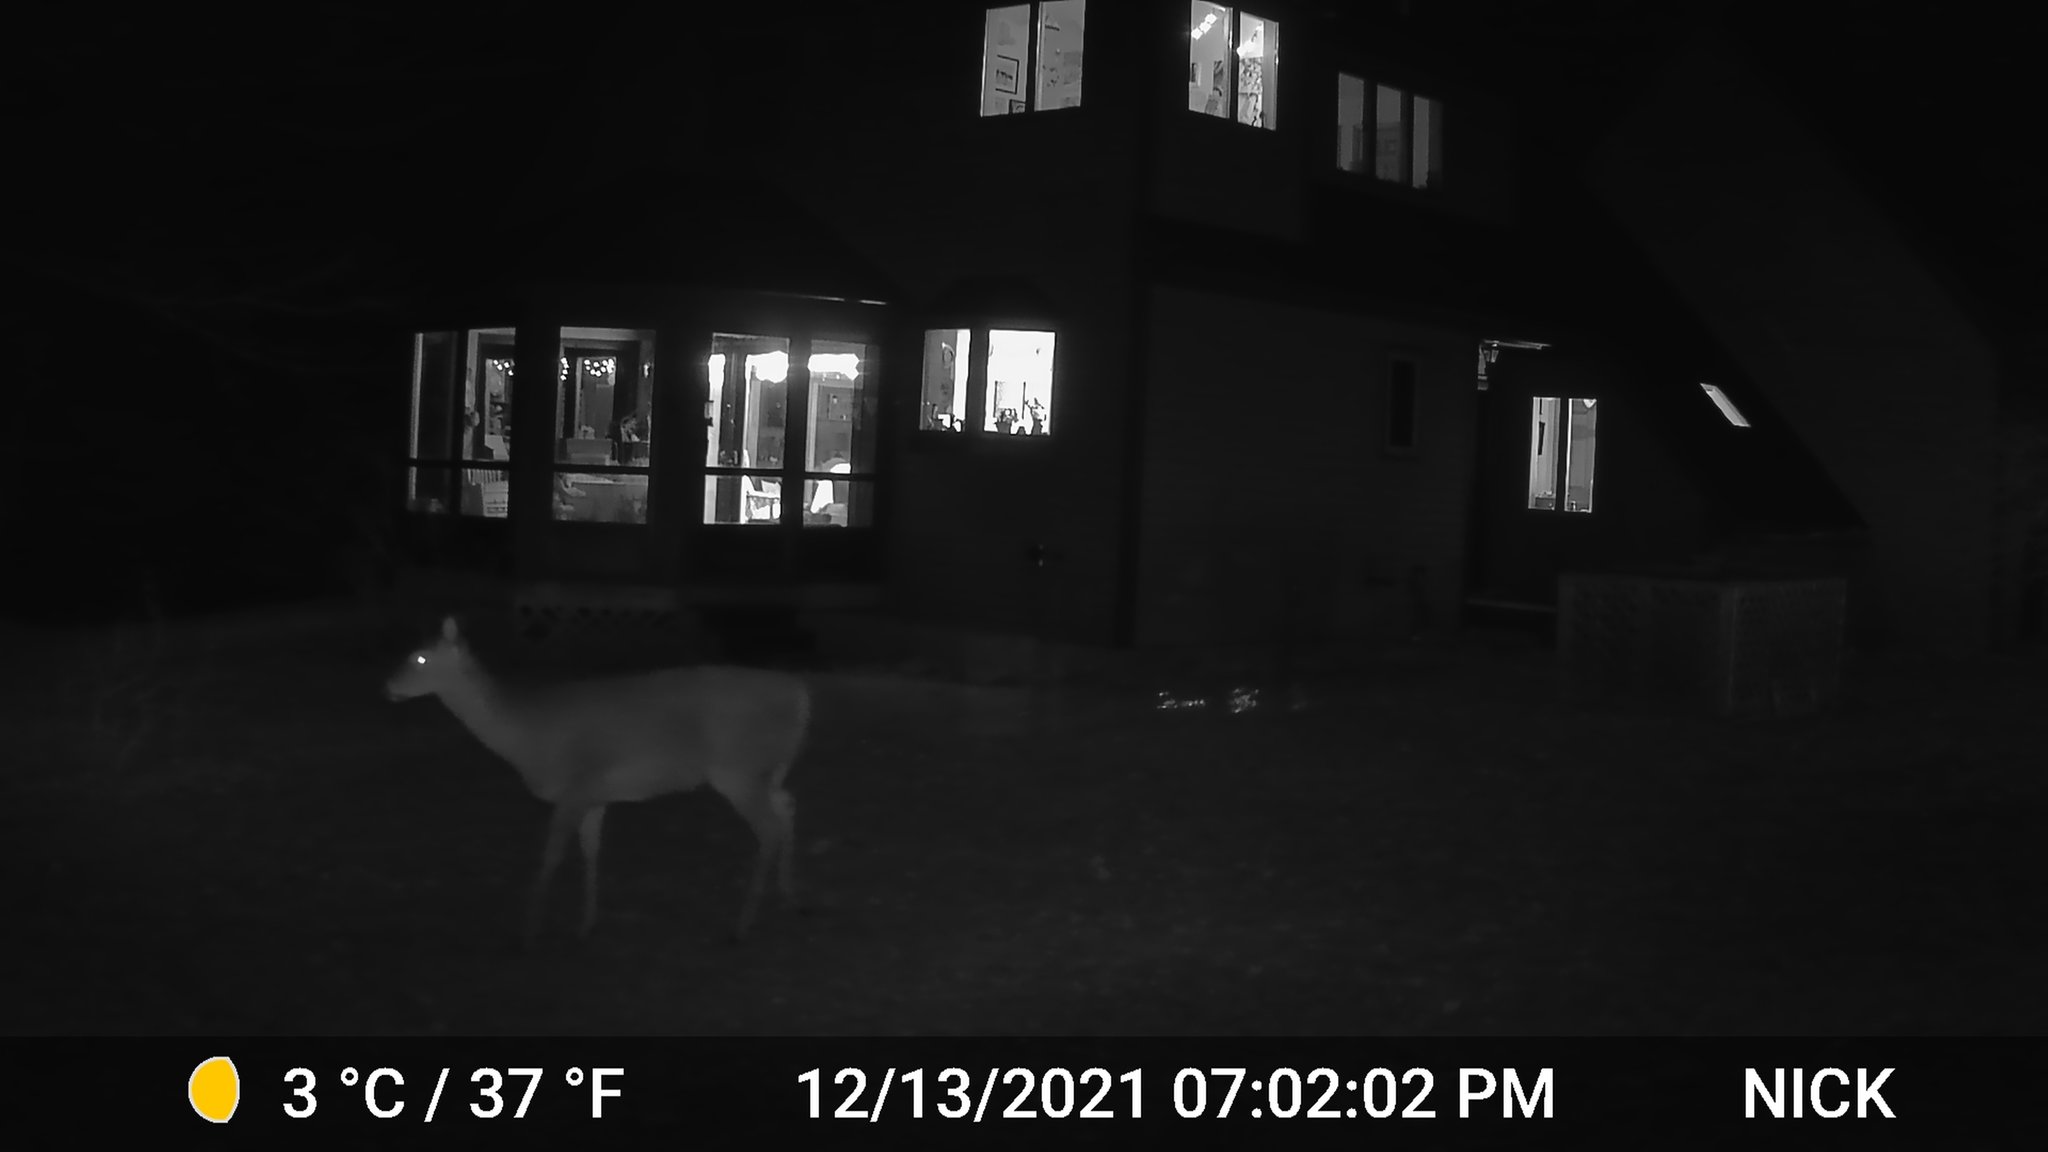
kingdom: Animalia
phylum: Chordata
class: Mammalia
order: Artiodactyla
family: Cervidae
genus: Odocoileus
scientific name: Odocoileus virginianus
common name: White-tailed deer
